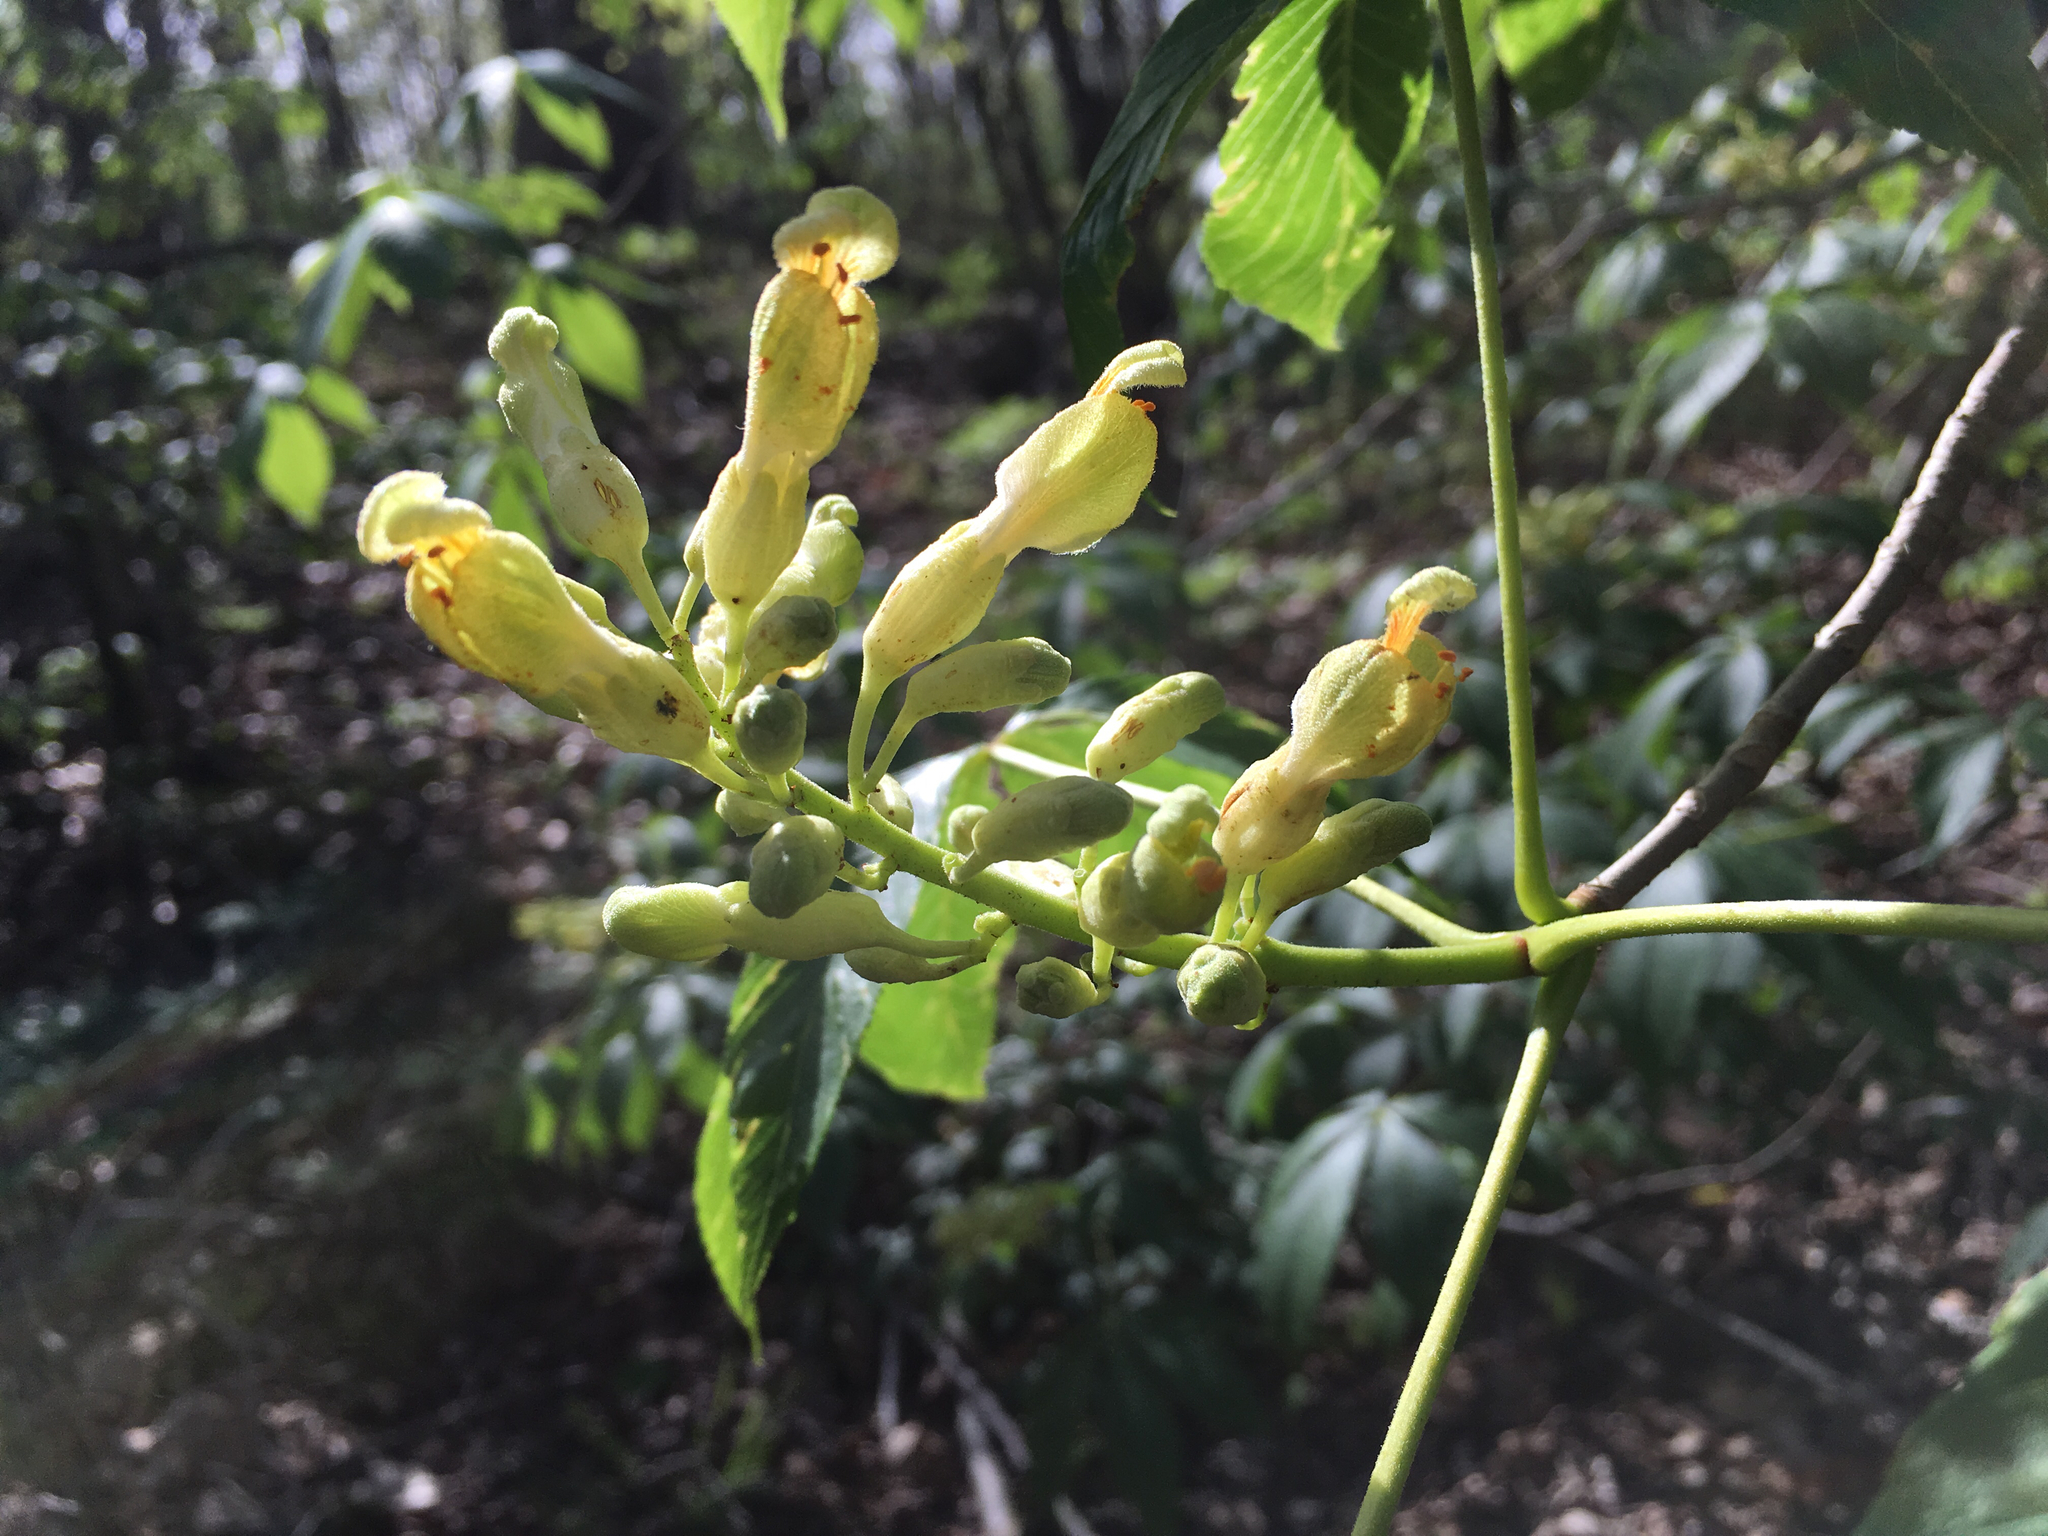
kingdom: Plantae
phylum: Tracheophyta
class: Magnoliopsida
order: Sapindales
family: Sapindaceae
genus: Aesculus
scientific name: Aesculus sylvatica
